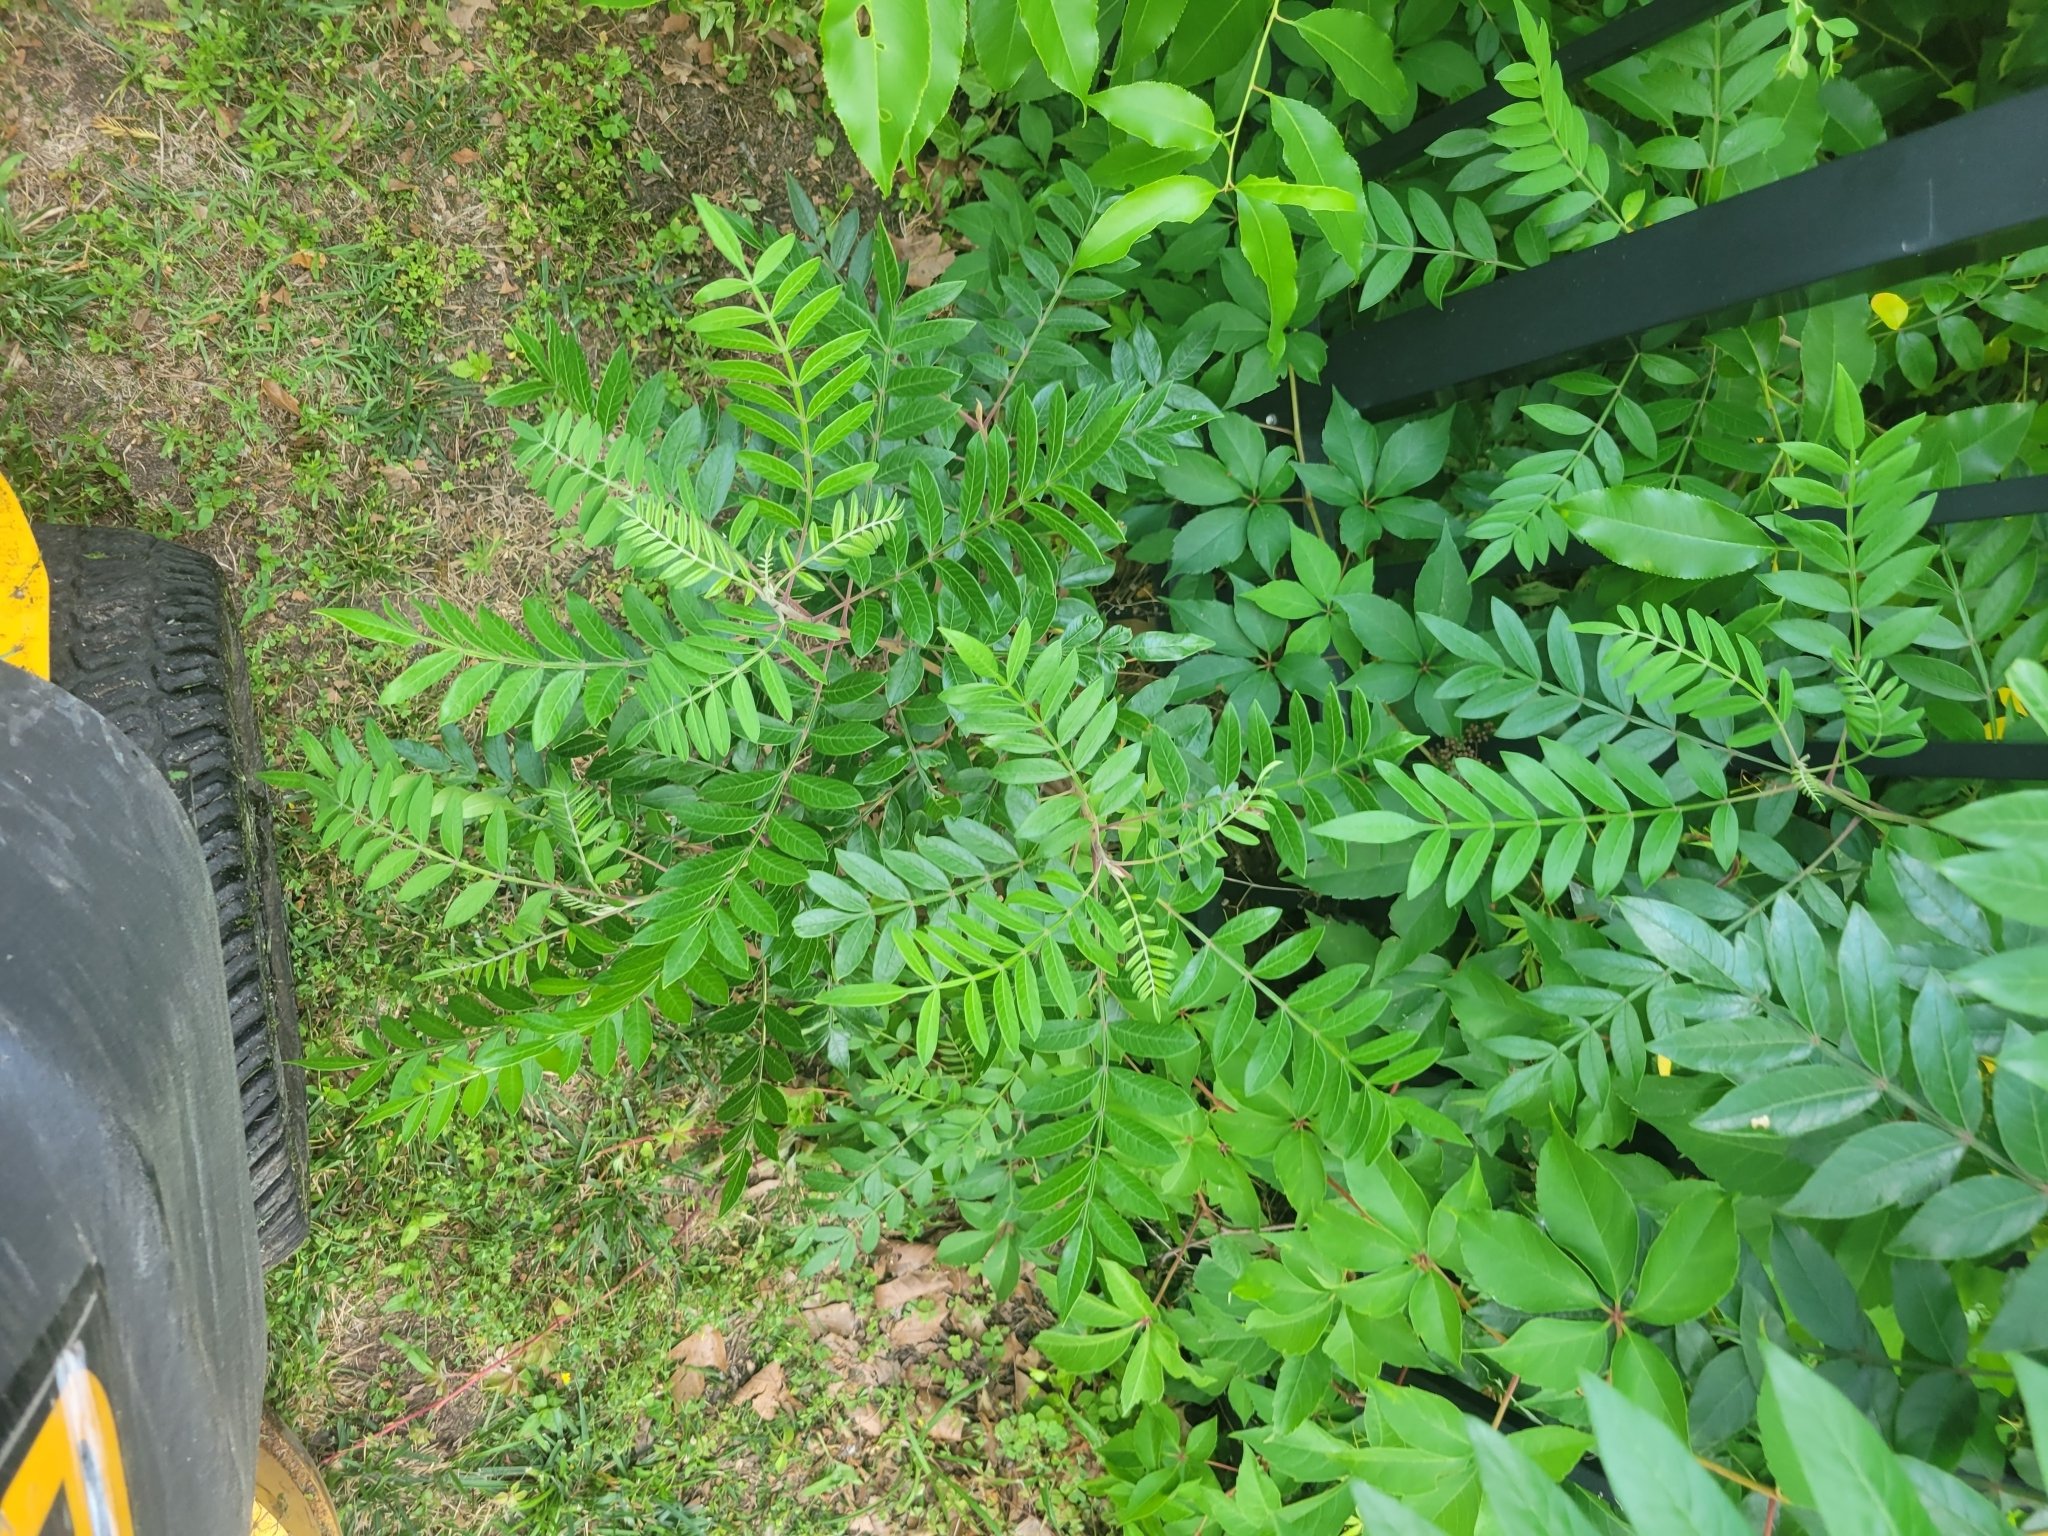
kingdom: Plantae
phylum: Tracheophyta
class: Magnoliopsida
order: Sapindales
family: Anacardiaceae
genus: Rhus
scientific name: Rhus copallina
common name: Shining sumac
